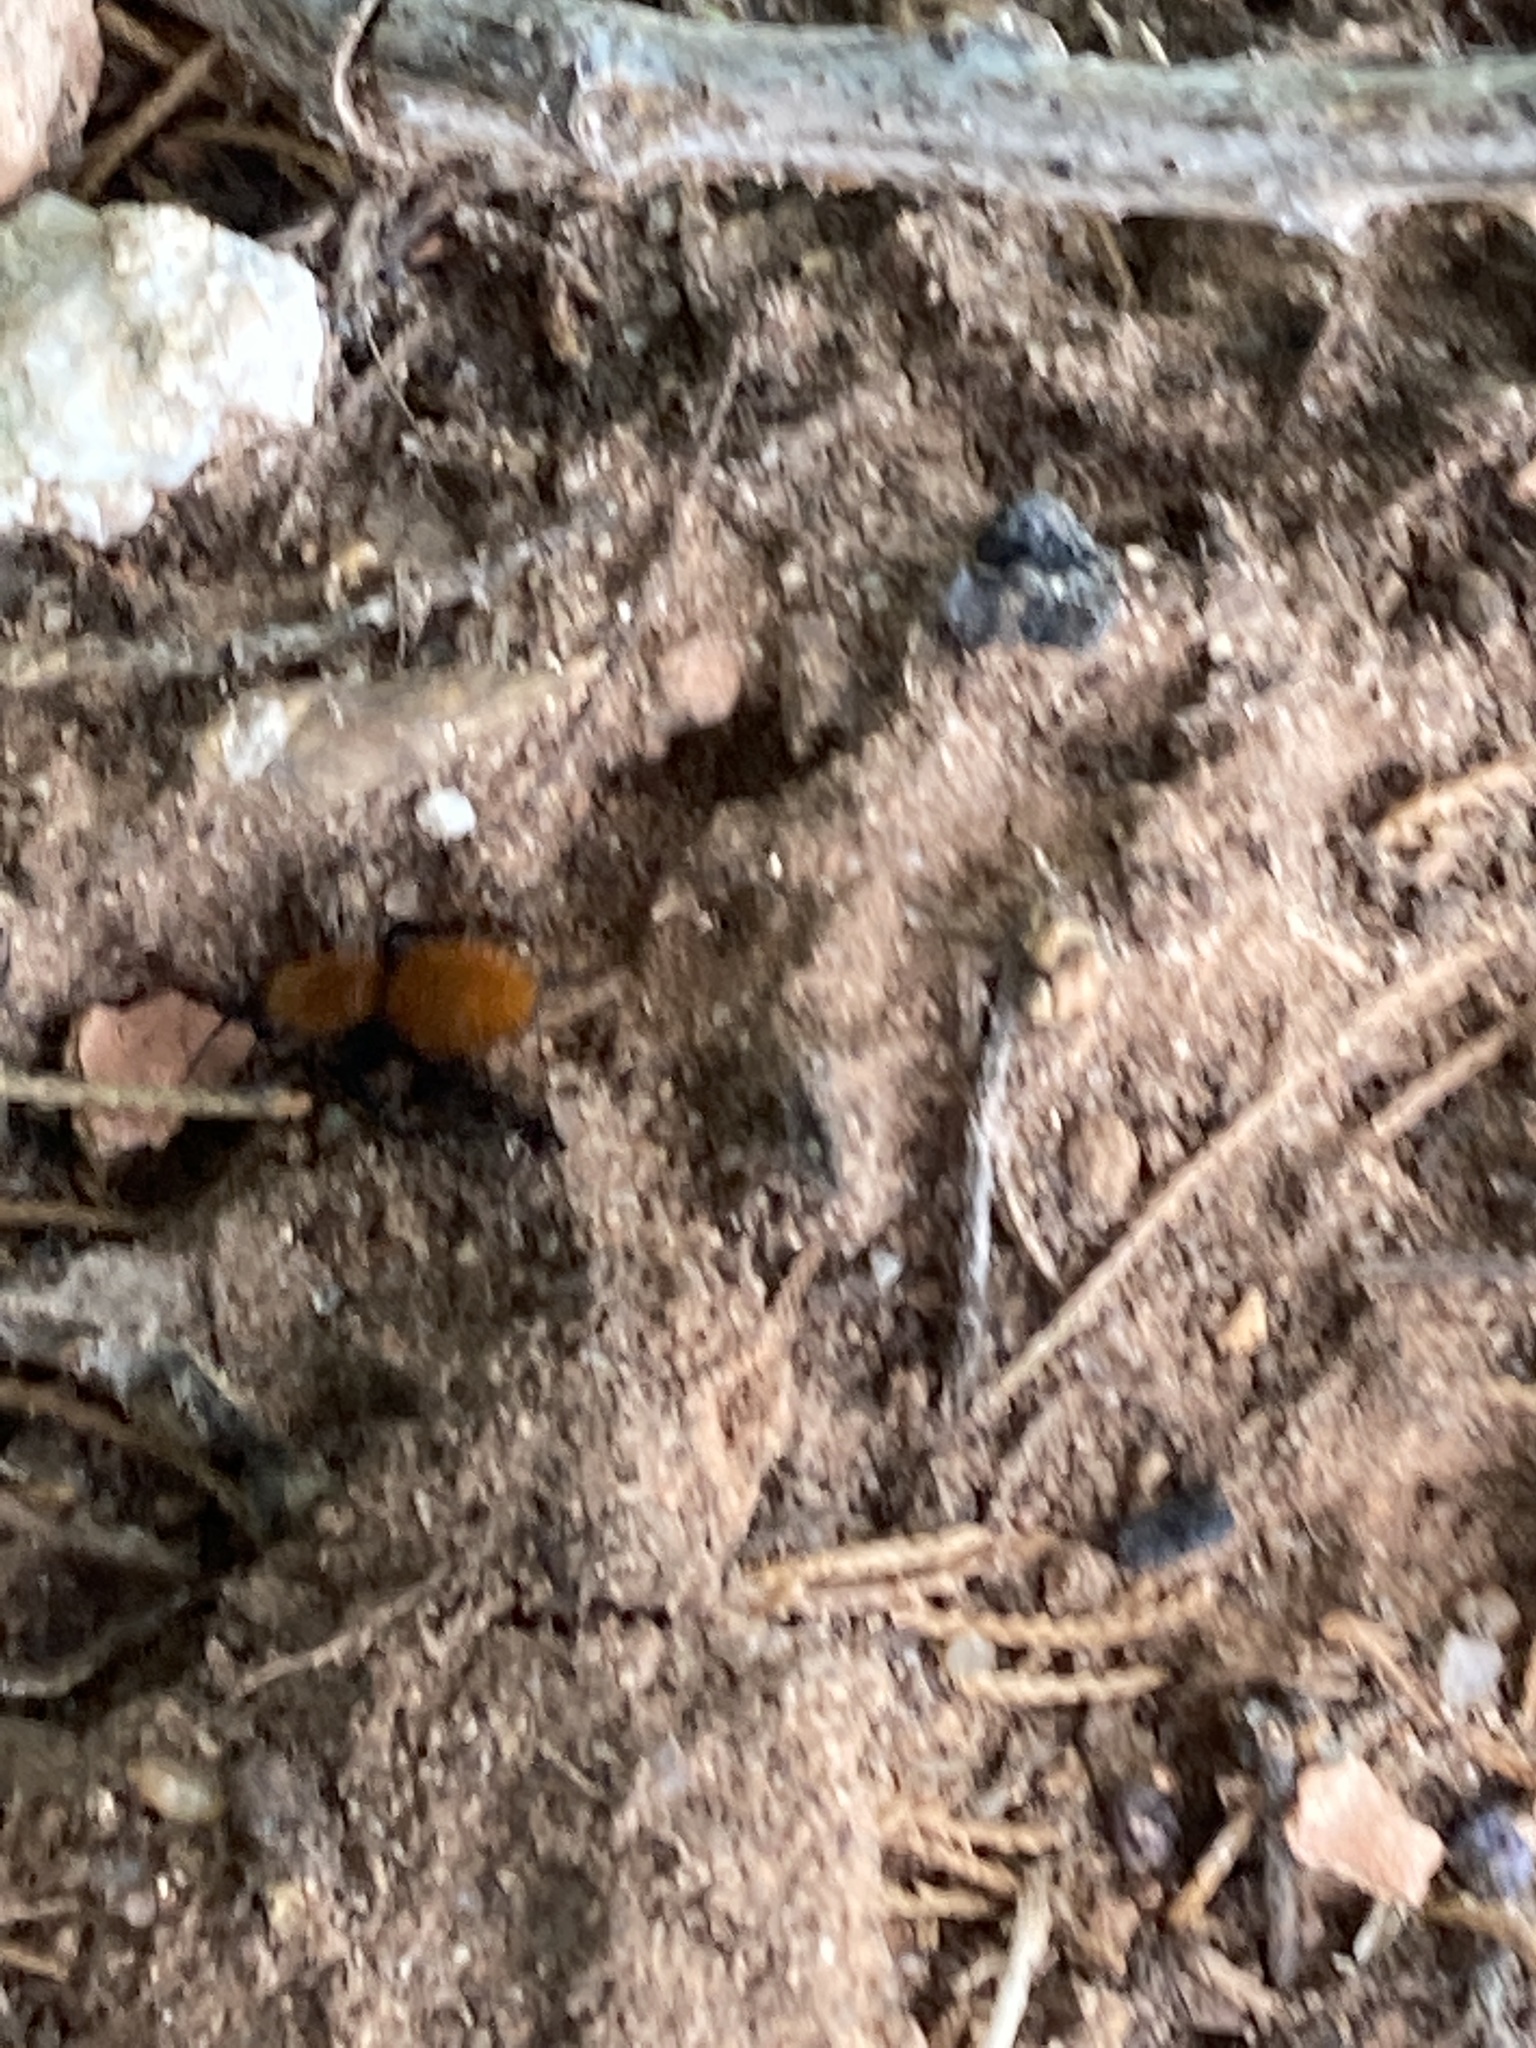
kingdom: Animalia
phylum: Arthropoda
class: Insecta
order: Hymenoptera
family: Mutillidae
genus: Dasymutilla
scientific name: Dasymutilla vestita
